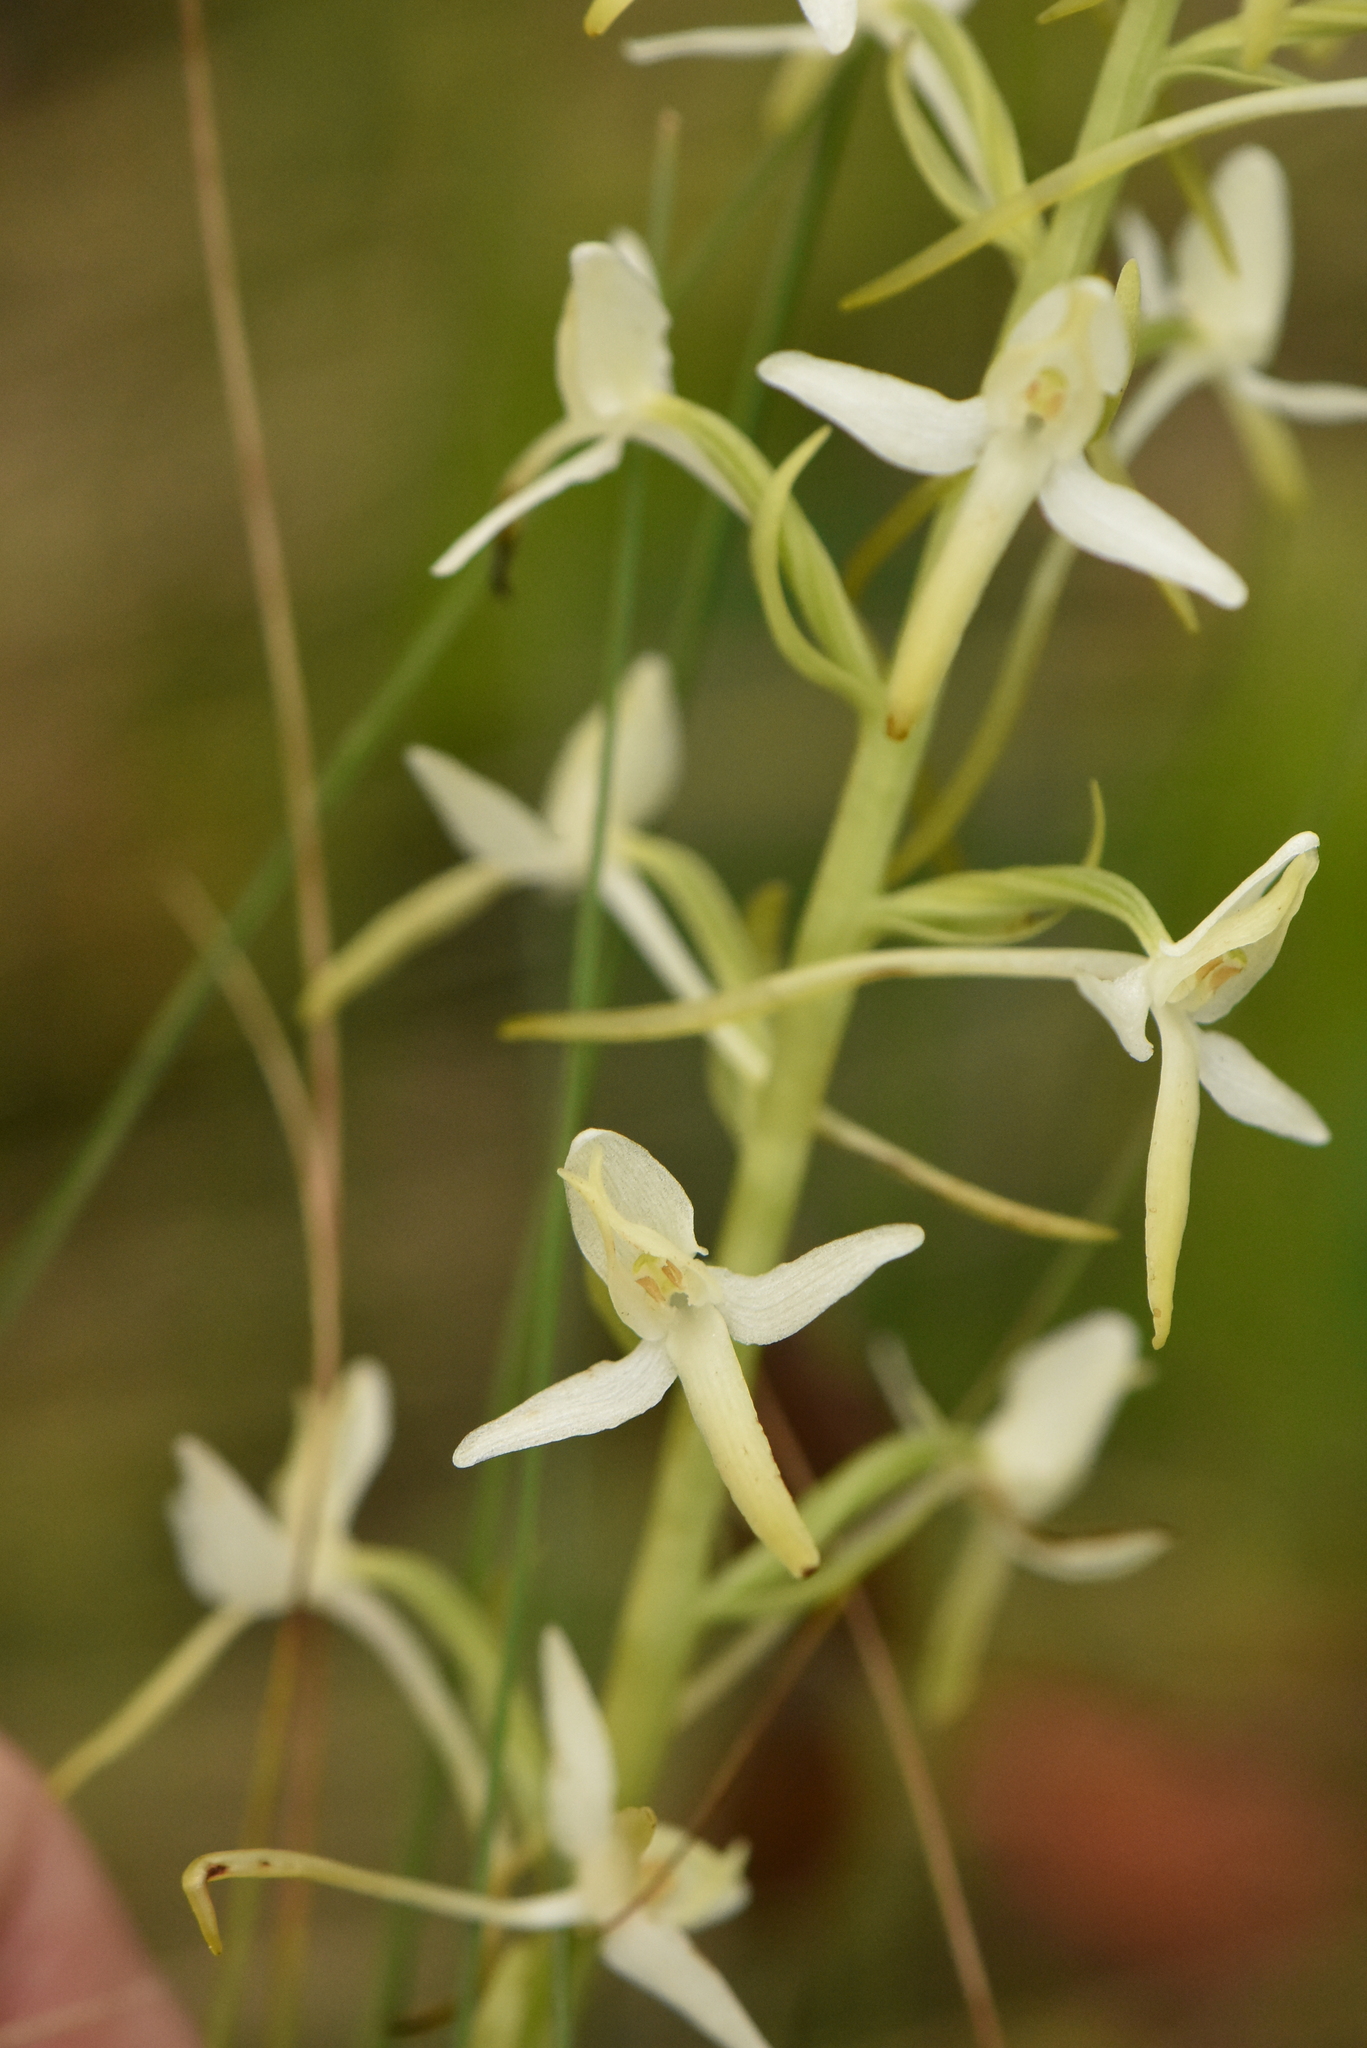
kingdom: Plantae
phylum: Tracheophyta
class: Liliopsida
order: Asparagales
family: Orchidaceae
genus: Platanthera
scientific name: Platanthera bifolia
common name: Lesser butterfly-orchid
